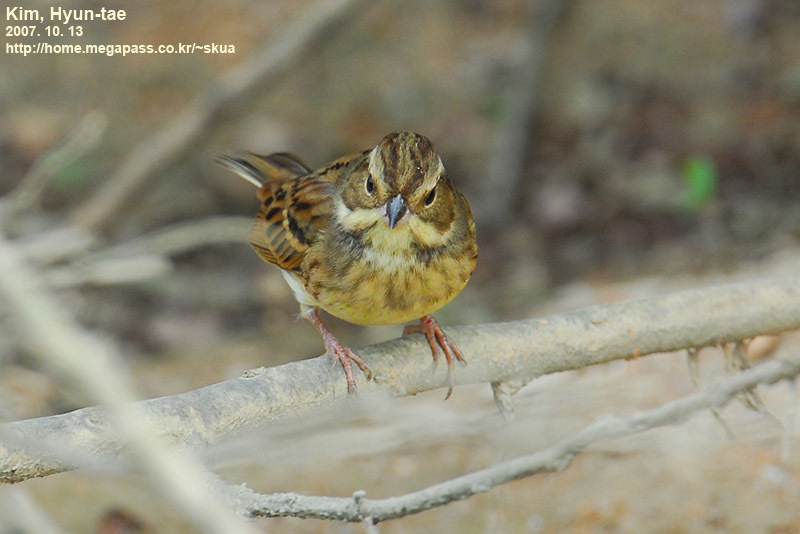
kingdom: Animalia
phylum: Chordata
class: Aves
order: Passeriformes
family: Emberizidae
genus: Emberiza
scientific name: Emberiza spodocephala
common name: Black-faced bunting
